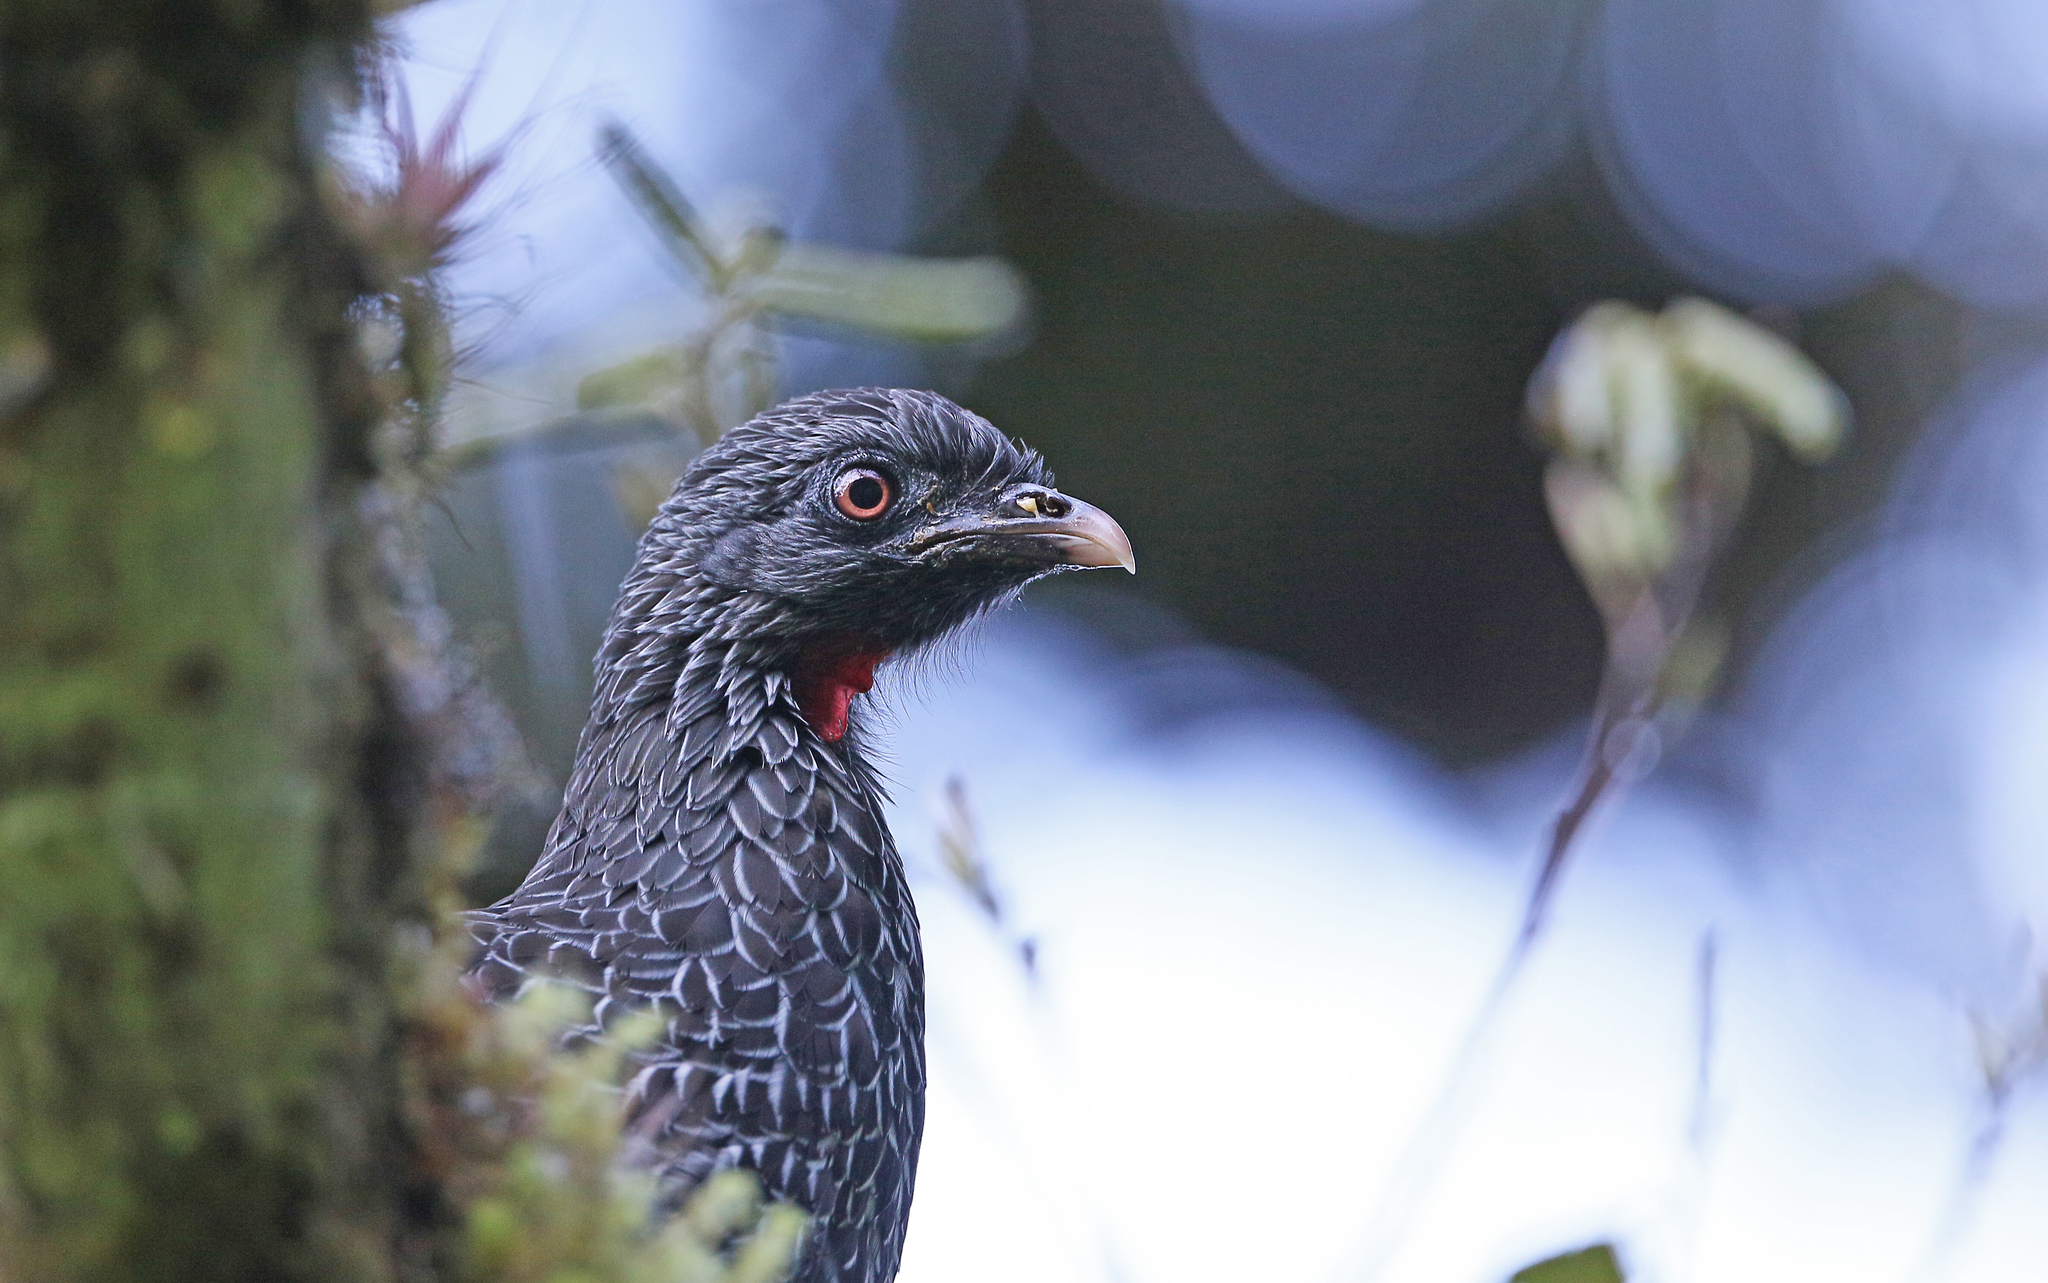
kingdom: Animalia
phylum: Chordata
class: Aves
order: Galliformes
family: Cracidae
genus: Penelope
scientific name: Penelope montagnii
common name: Andean guan
